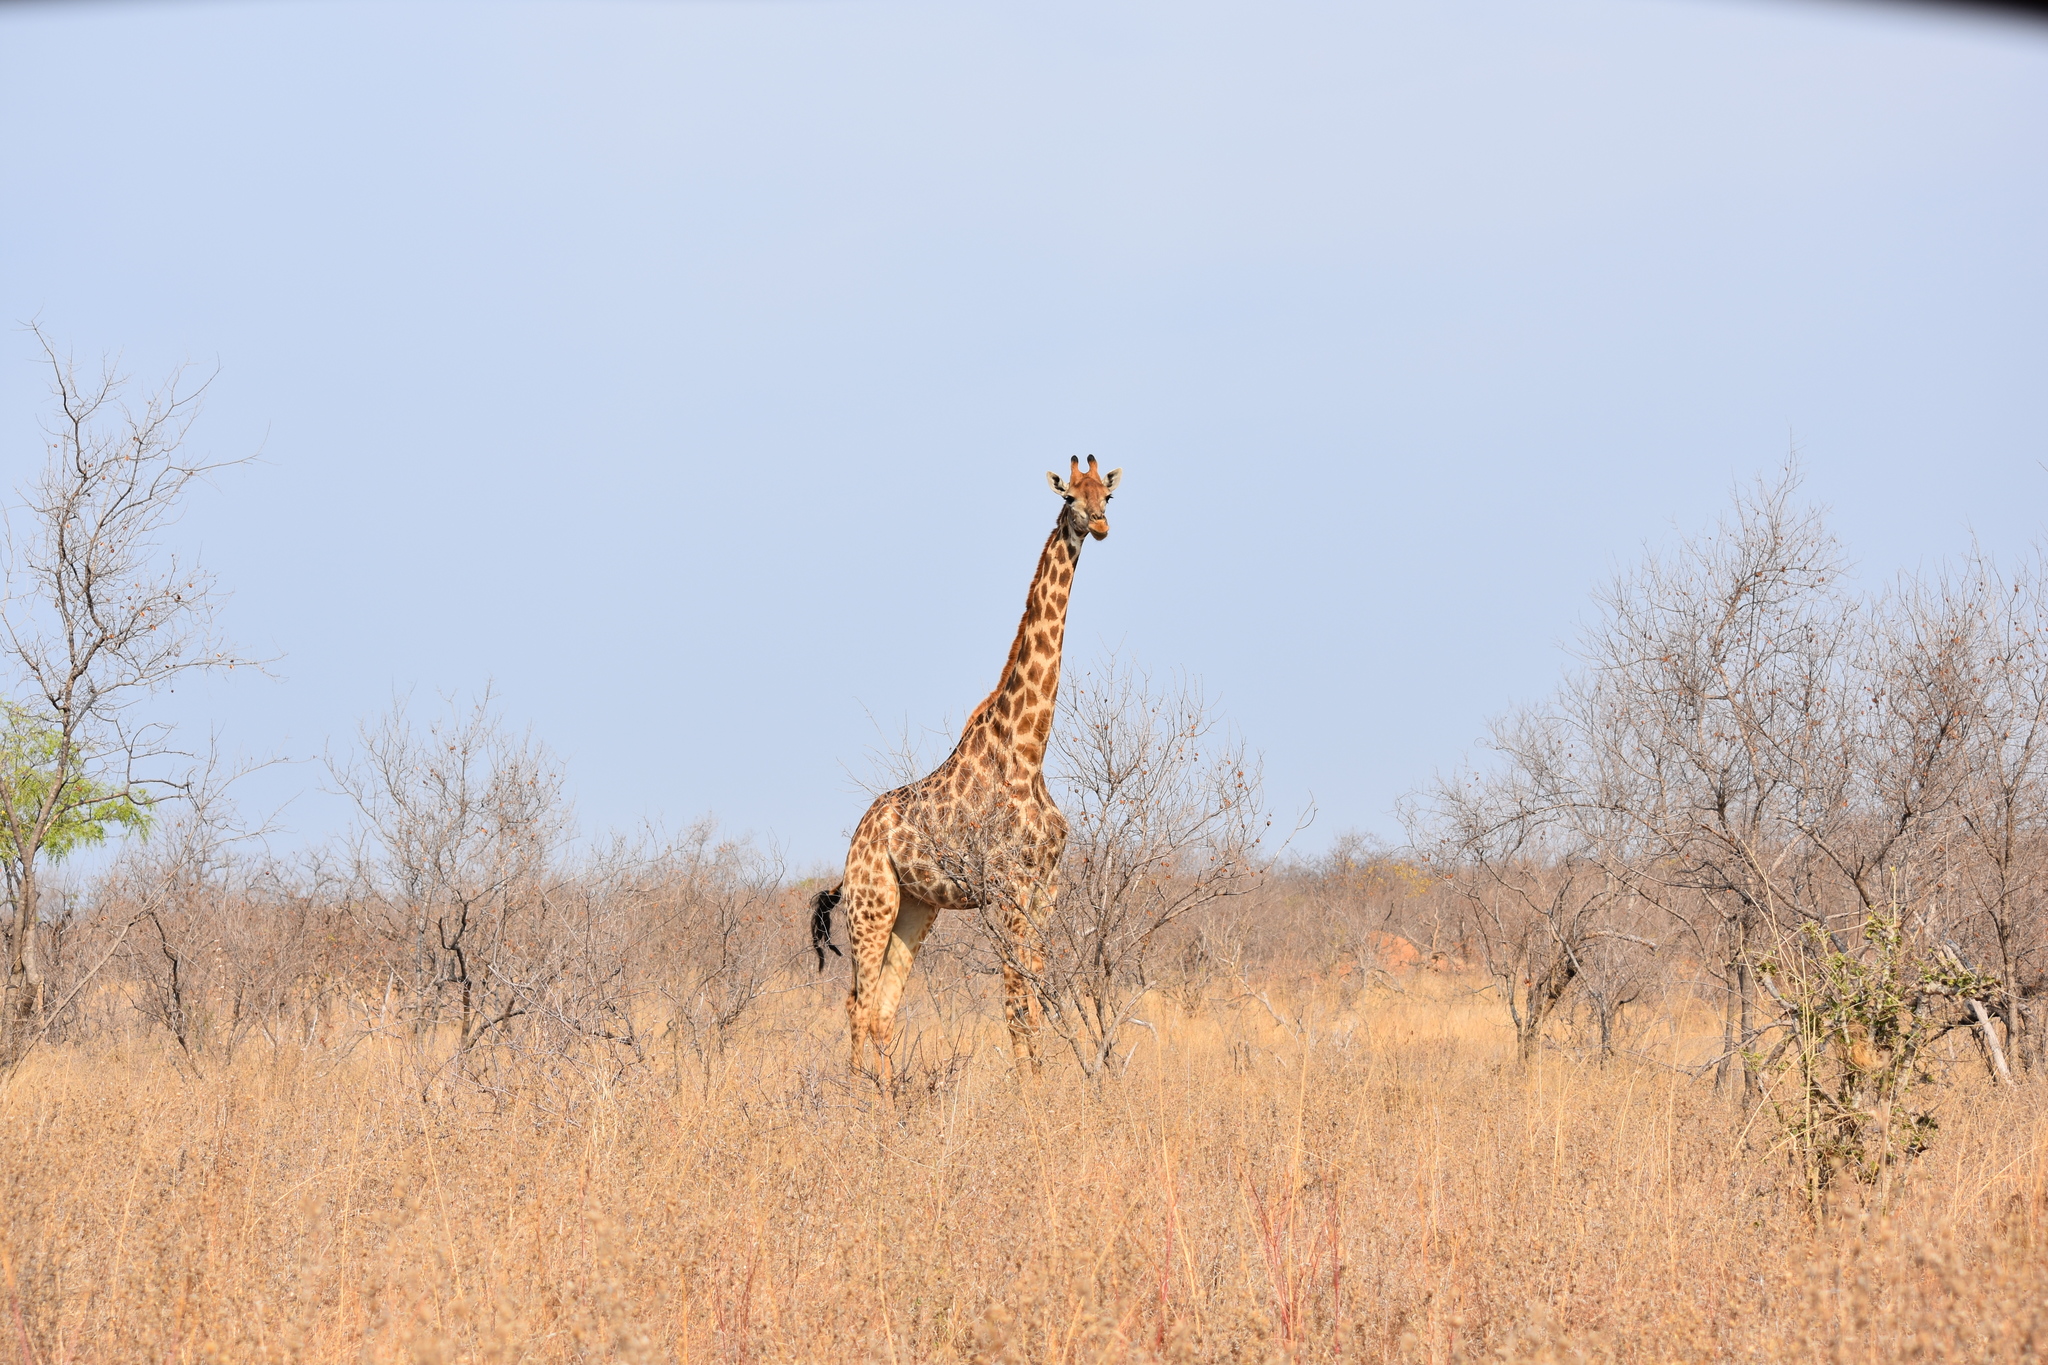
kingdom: Animalia
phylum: Chordata
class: Mammalia
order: Artiodactyla
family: Giraffidae
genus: Giraffa
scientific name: Giraffa giraffa
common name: Southern giraffe
